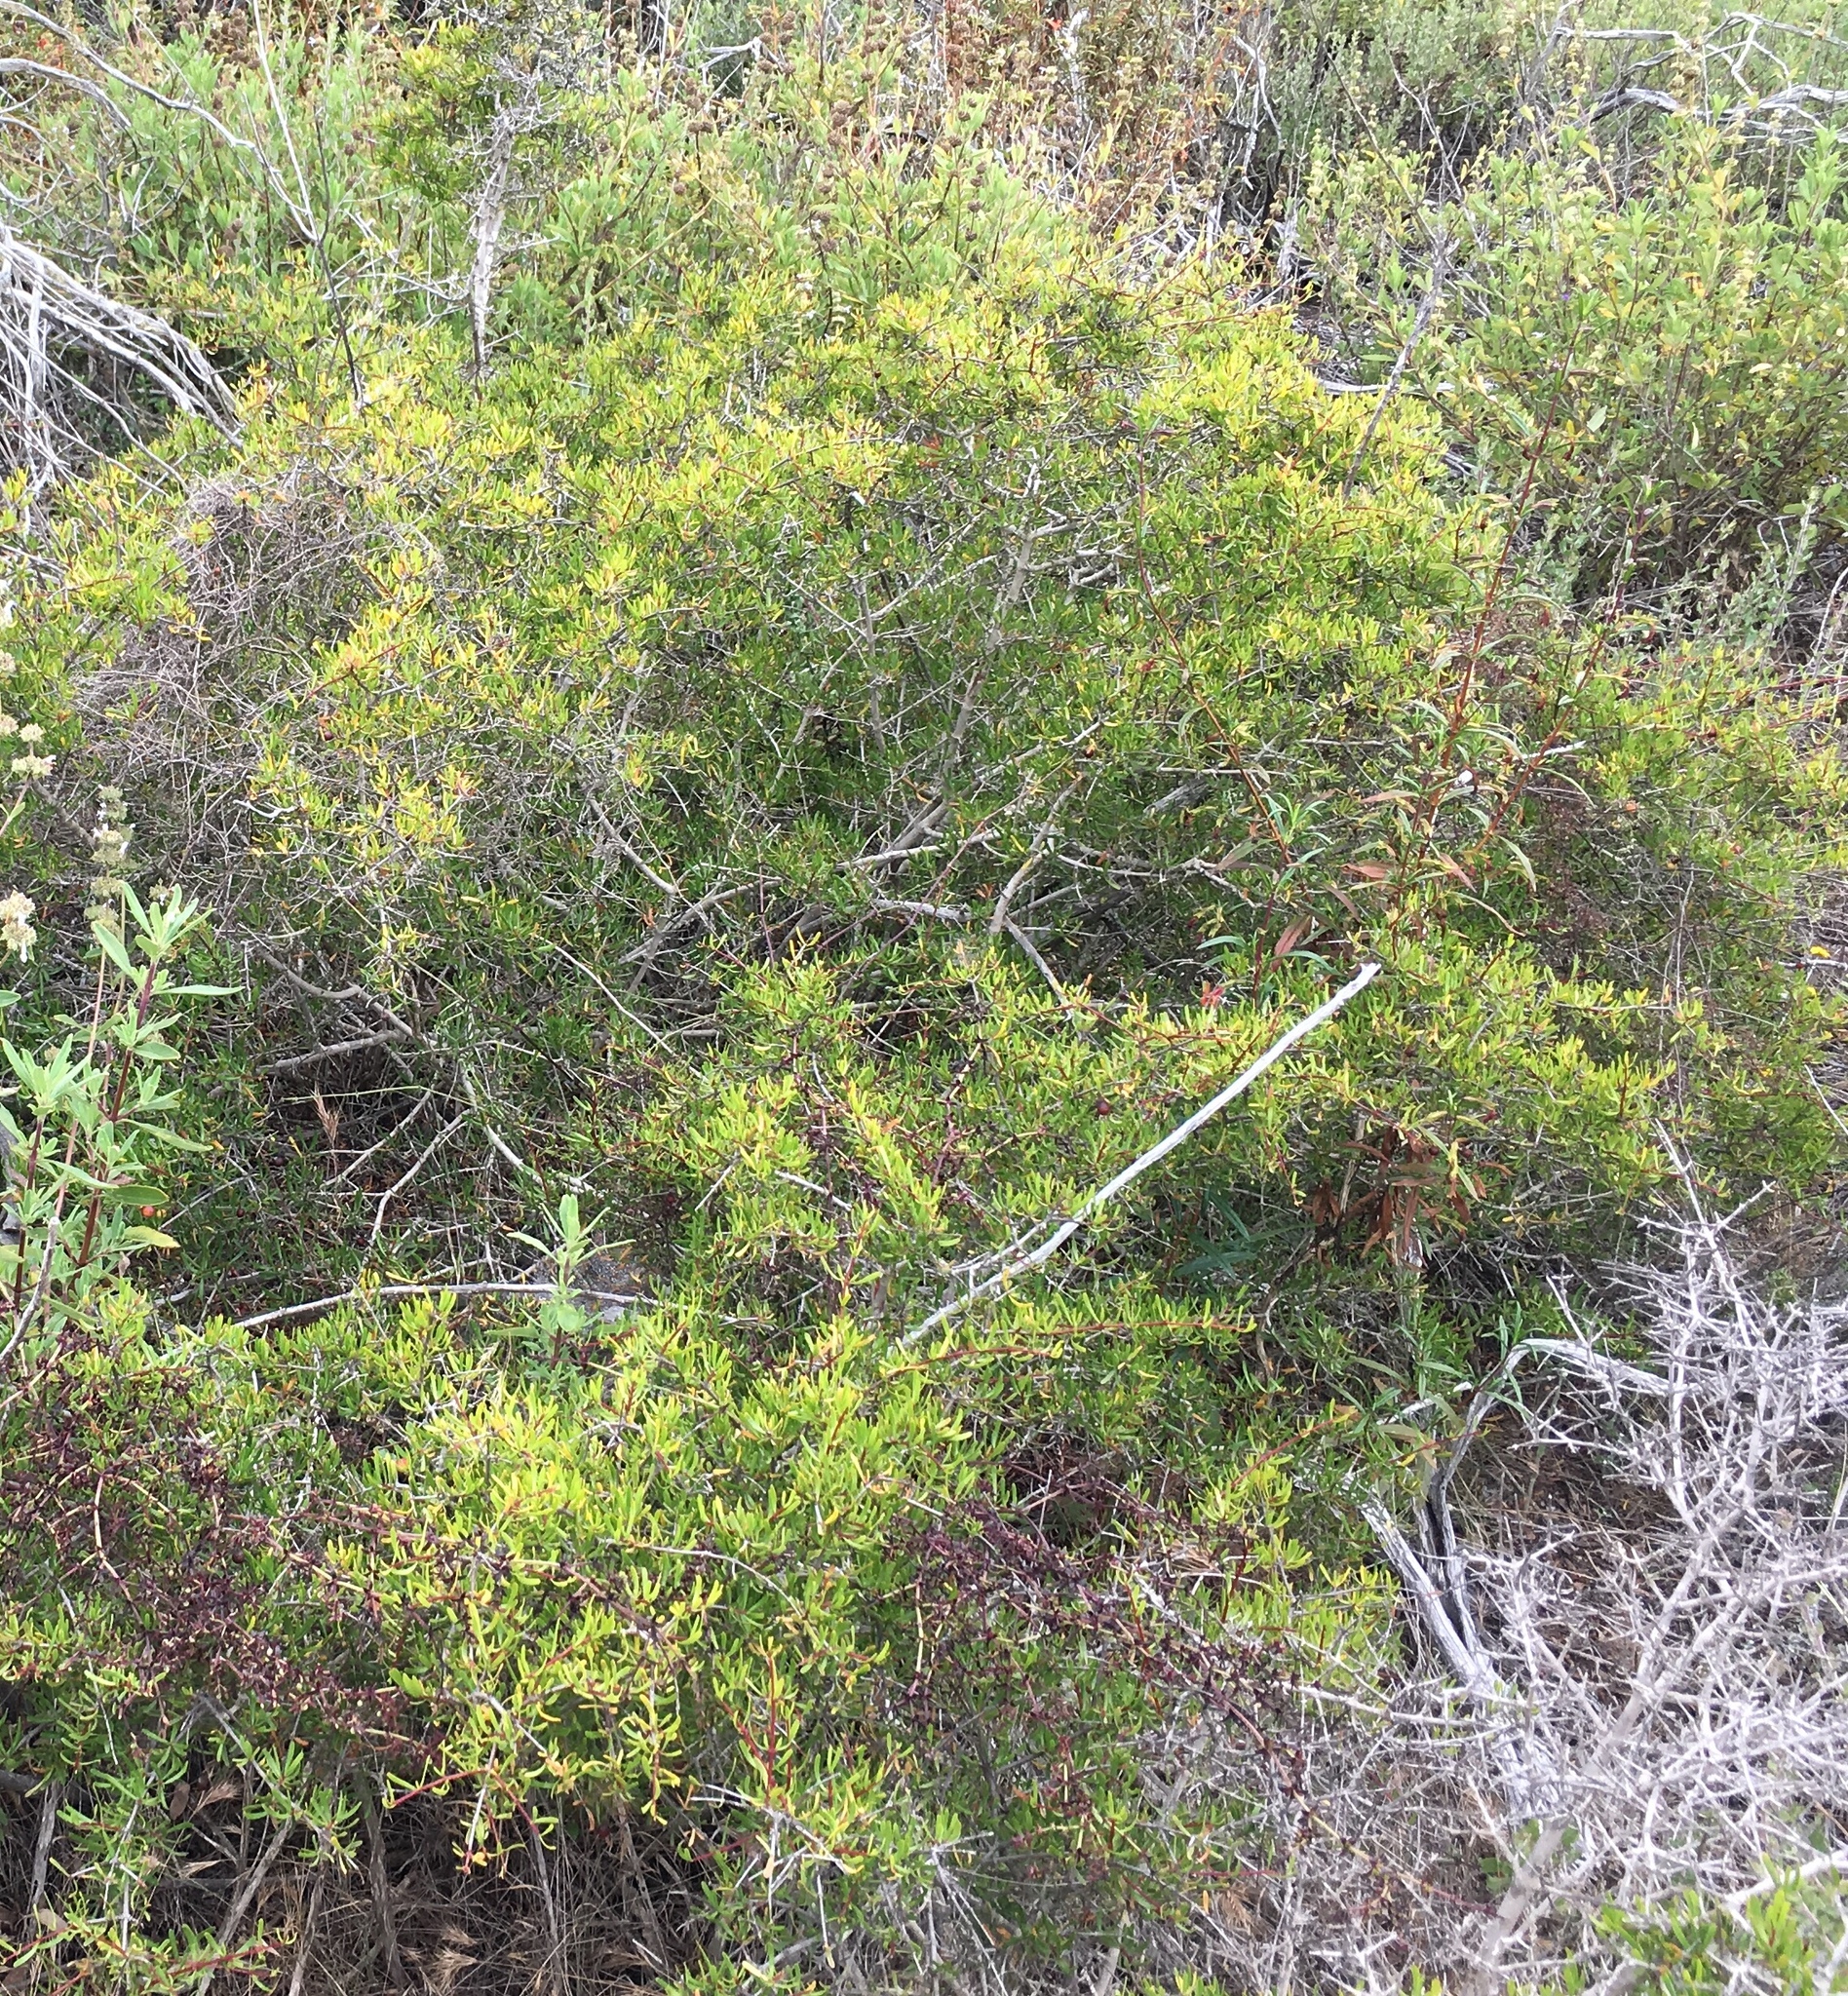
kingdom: Plantae
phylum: Tracheophyta
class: Magnoliopsida
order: Sapindales
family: Rutaceae
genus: Cneoridium
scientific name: Cneoridium dumosum
